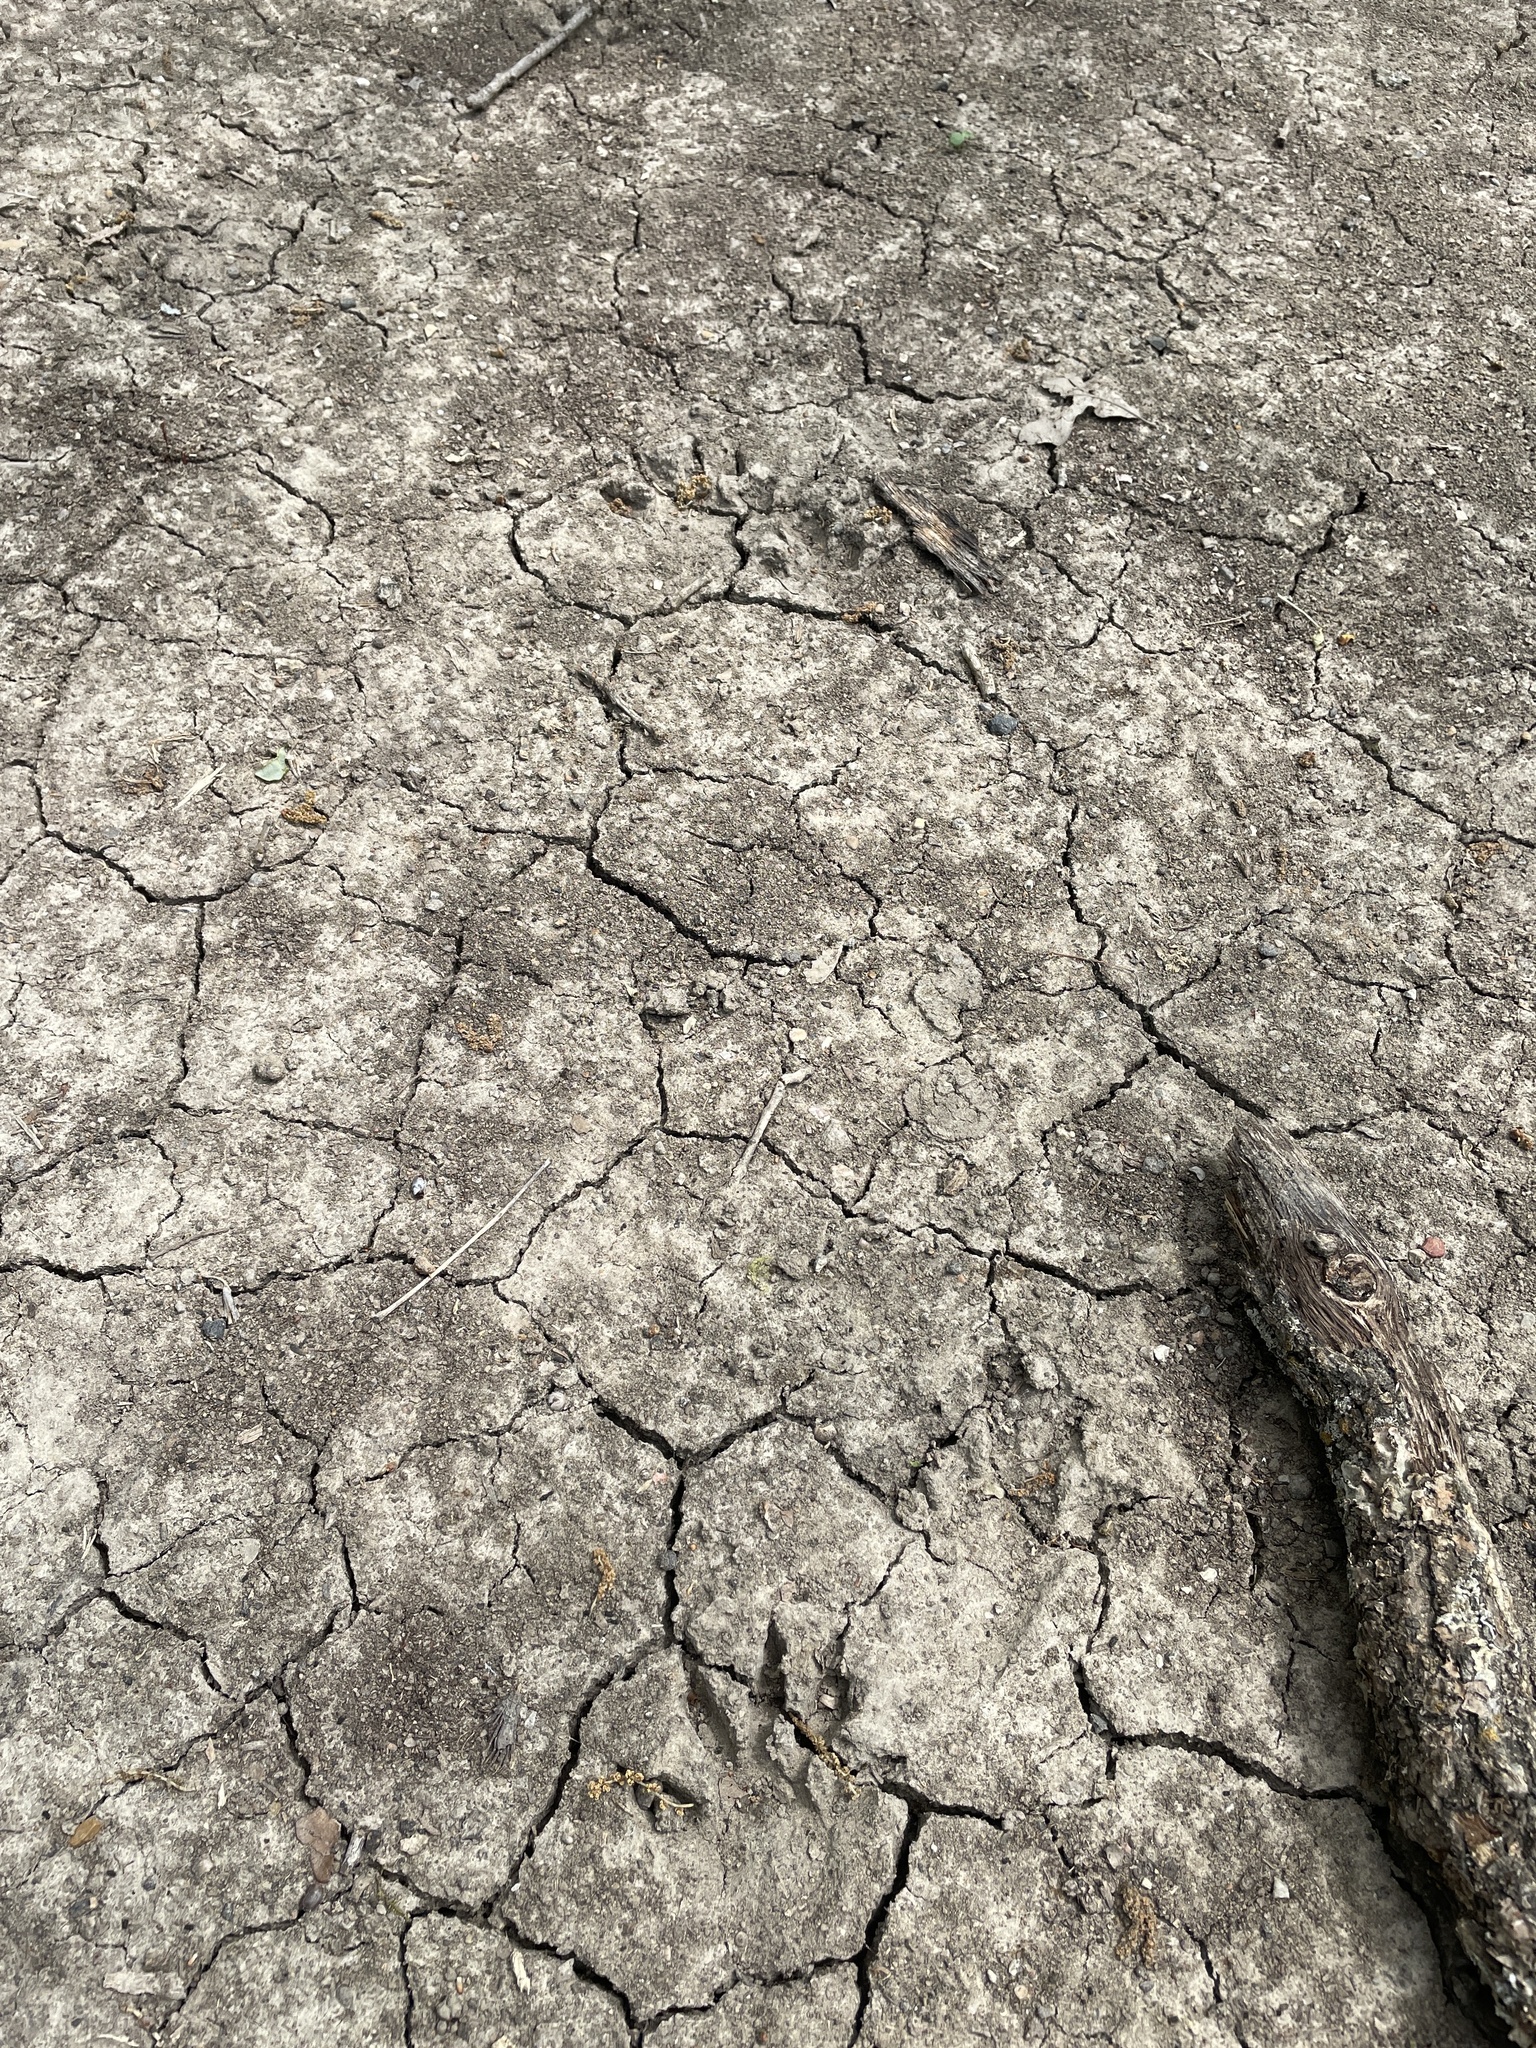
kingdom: Animalia
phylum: Chordata
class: Mammalia
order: Carnivora
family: Procyonidae
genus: Procyon
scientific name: Procyon lotor
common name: Raccoon
